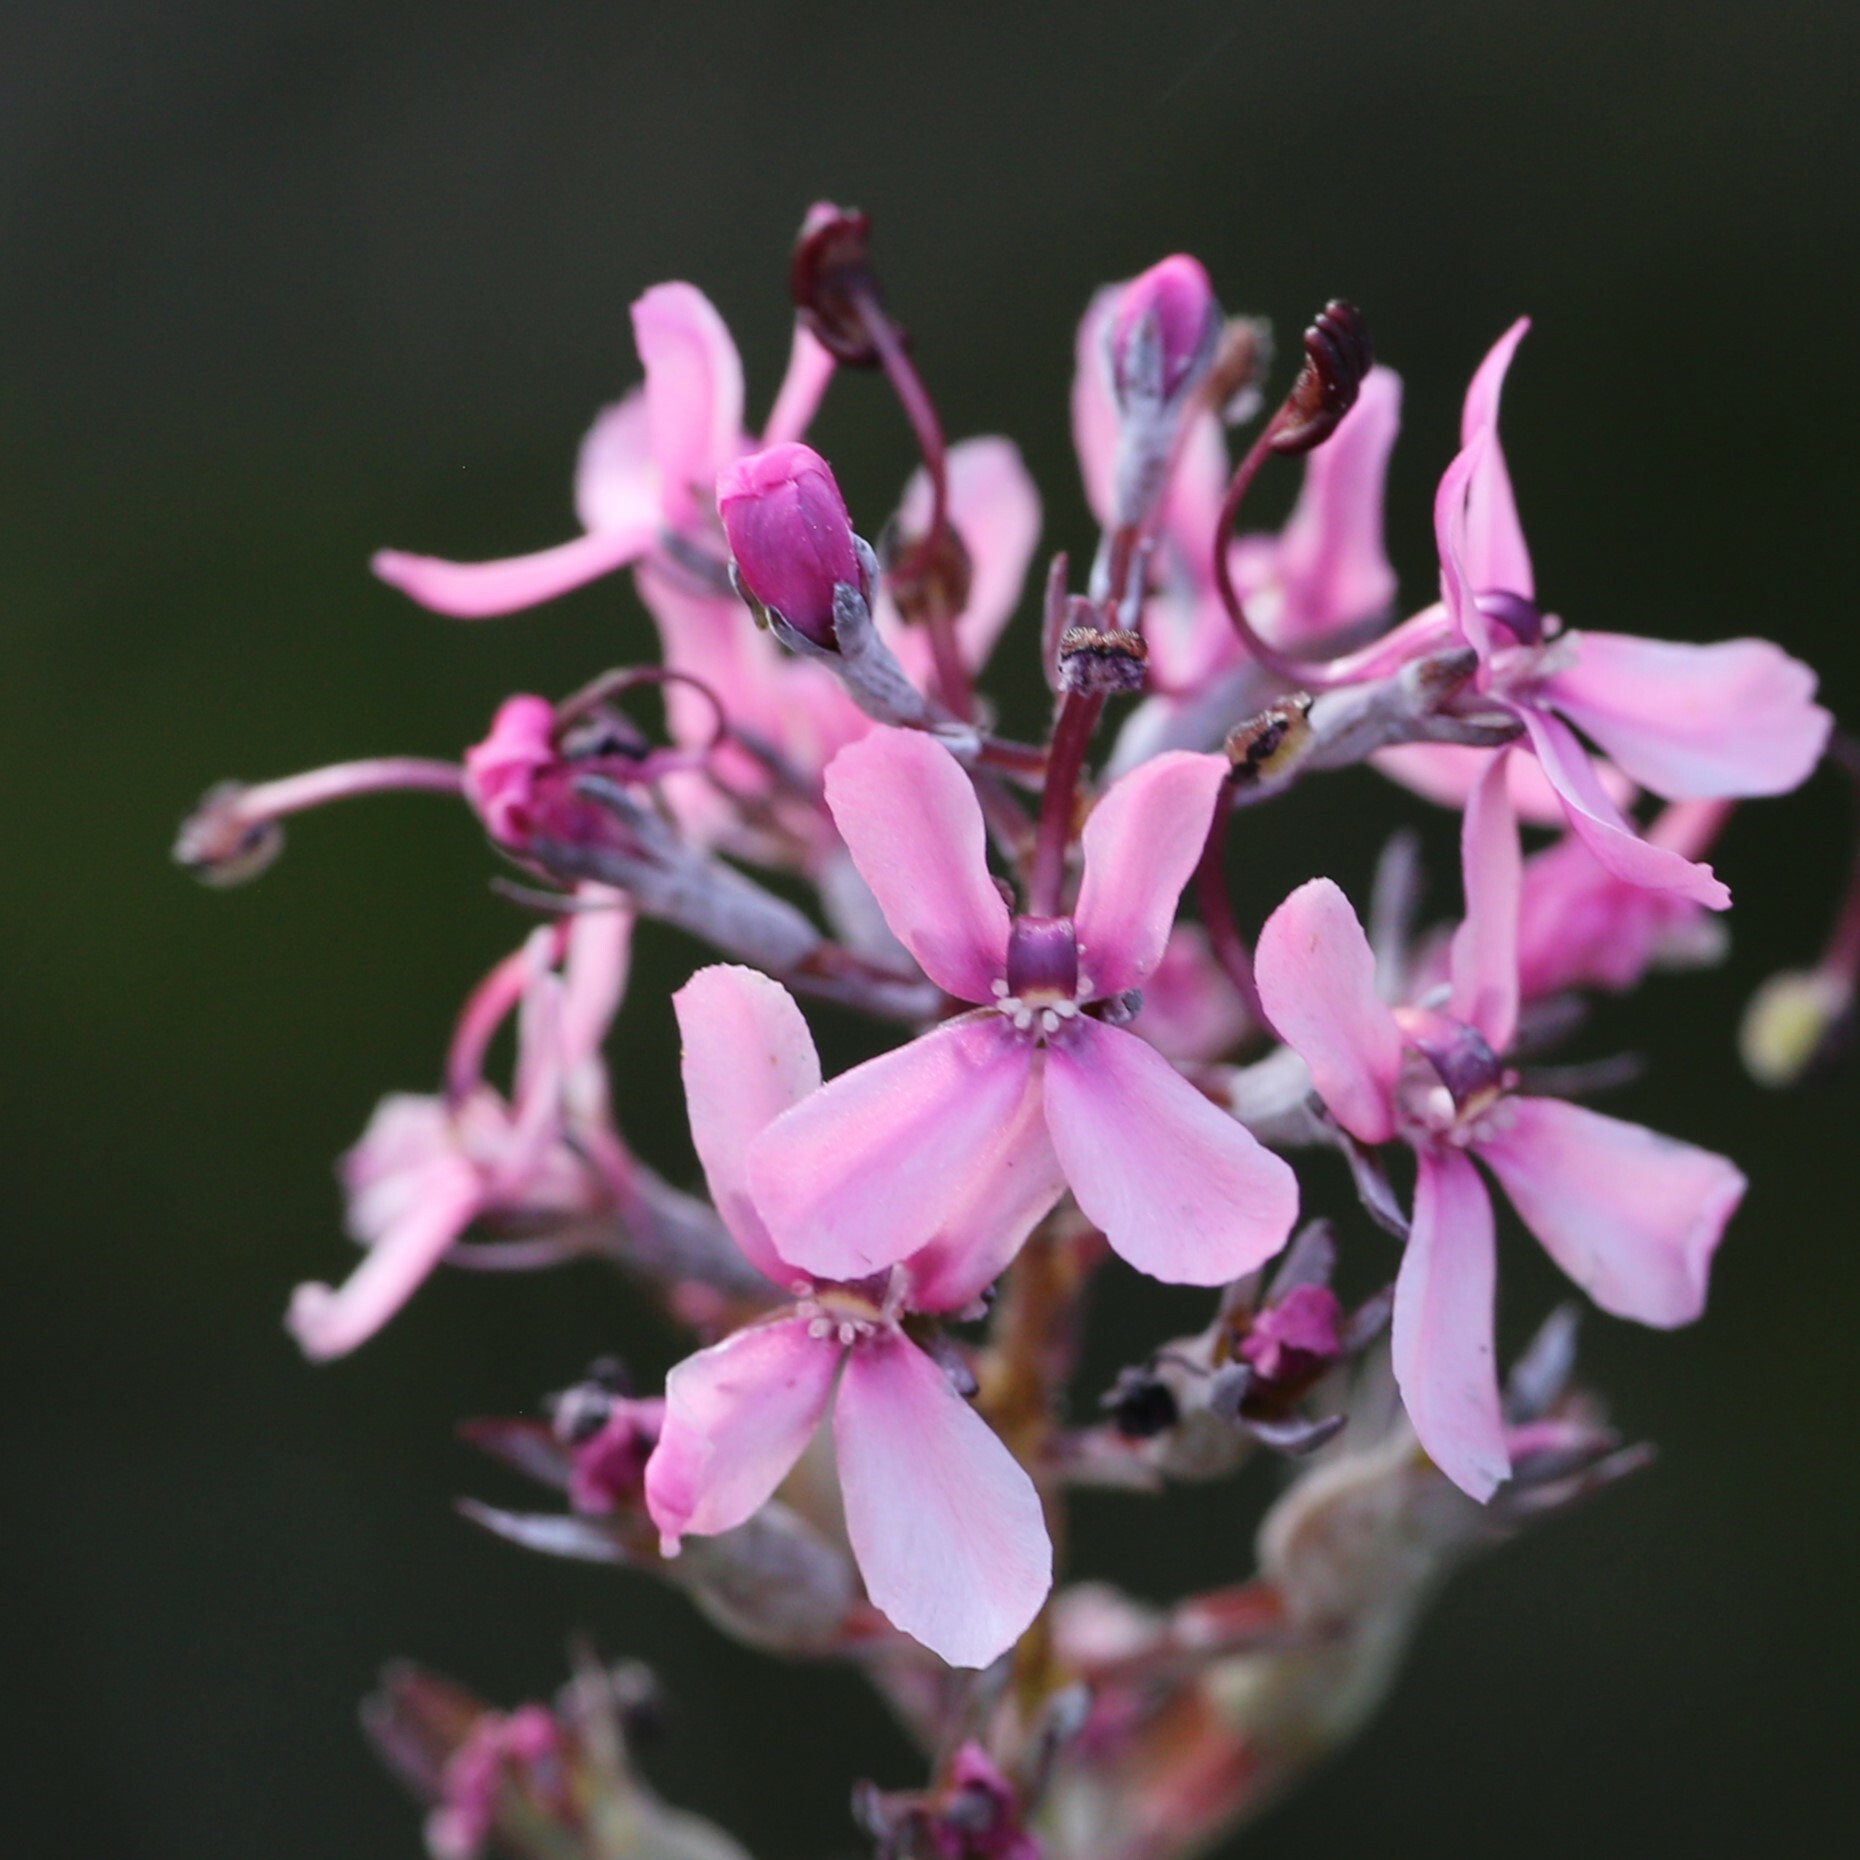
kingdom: Plantae
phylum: Tracheophyta
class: Magnoliopsida
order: Asterales
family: Stylidiaceae
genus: Stylidium
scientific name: Stylidium brunonianum
